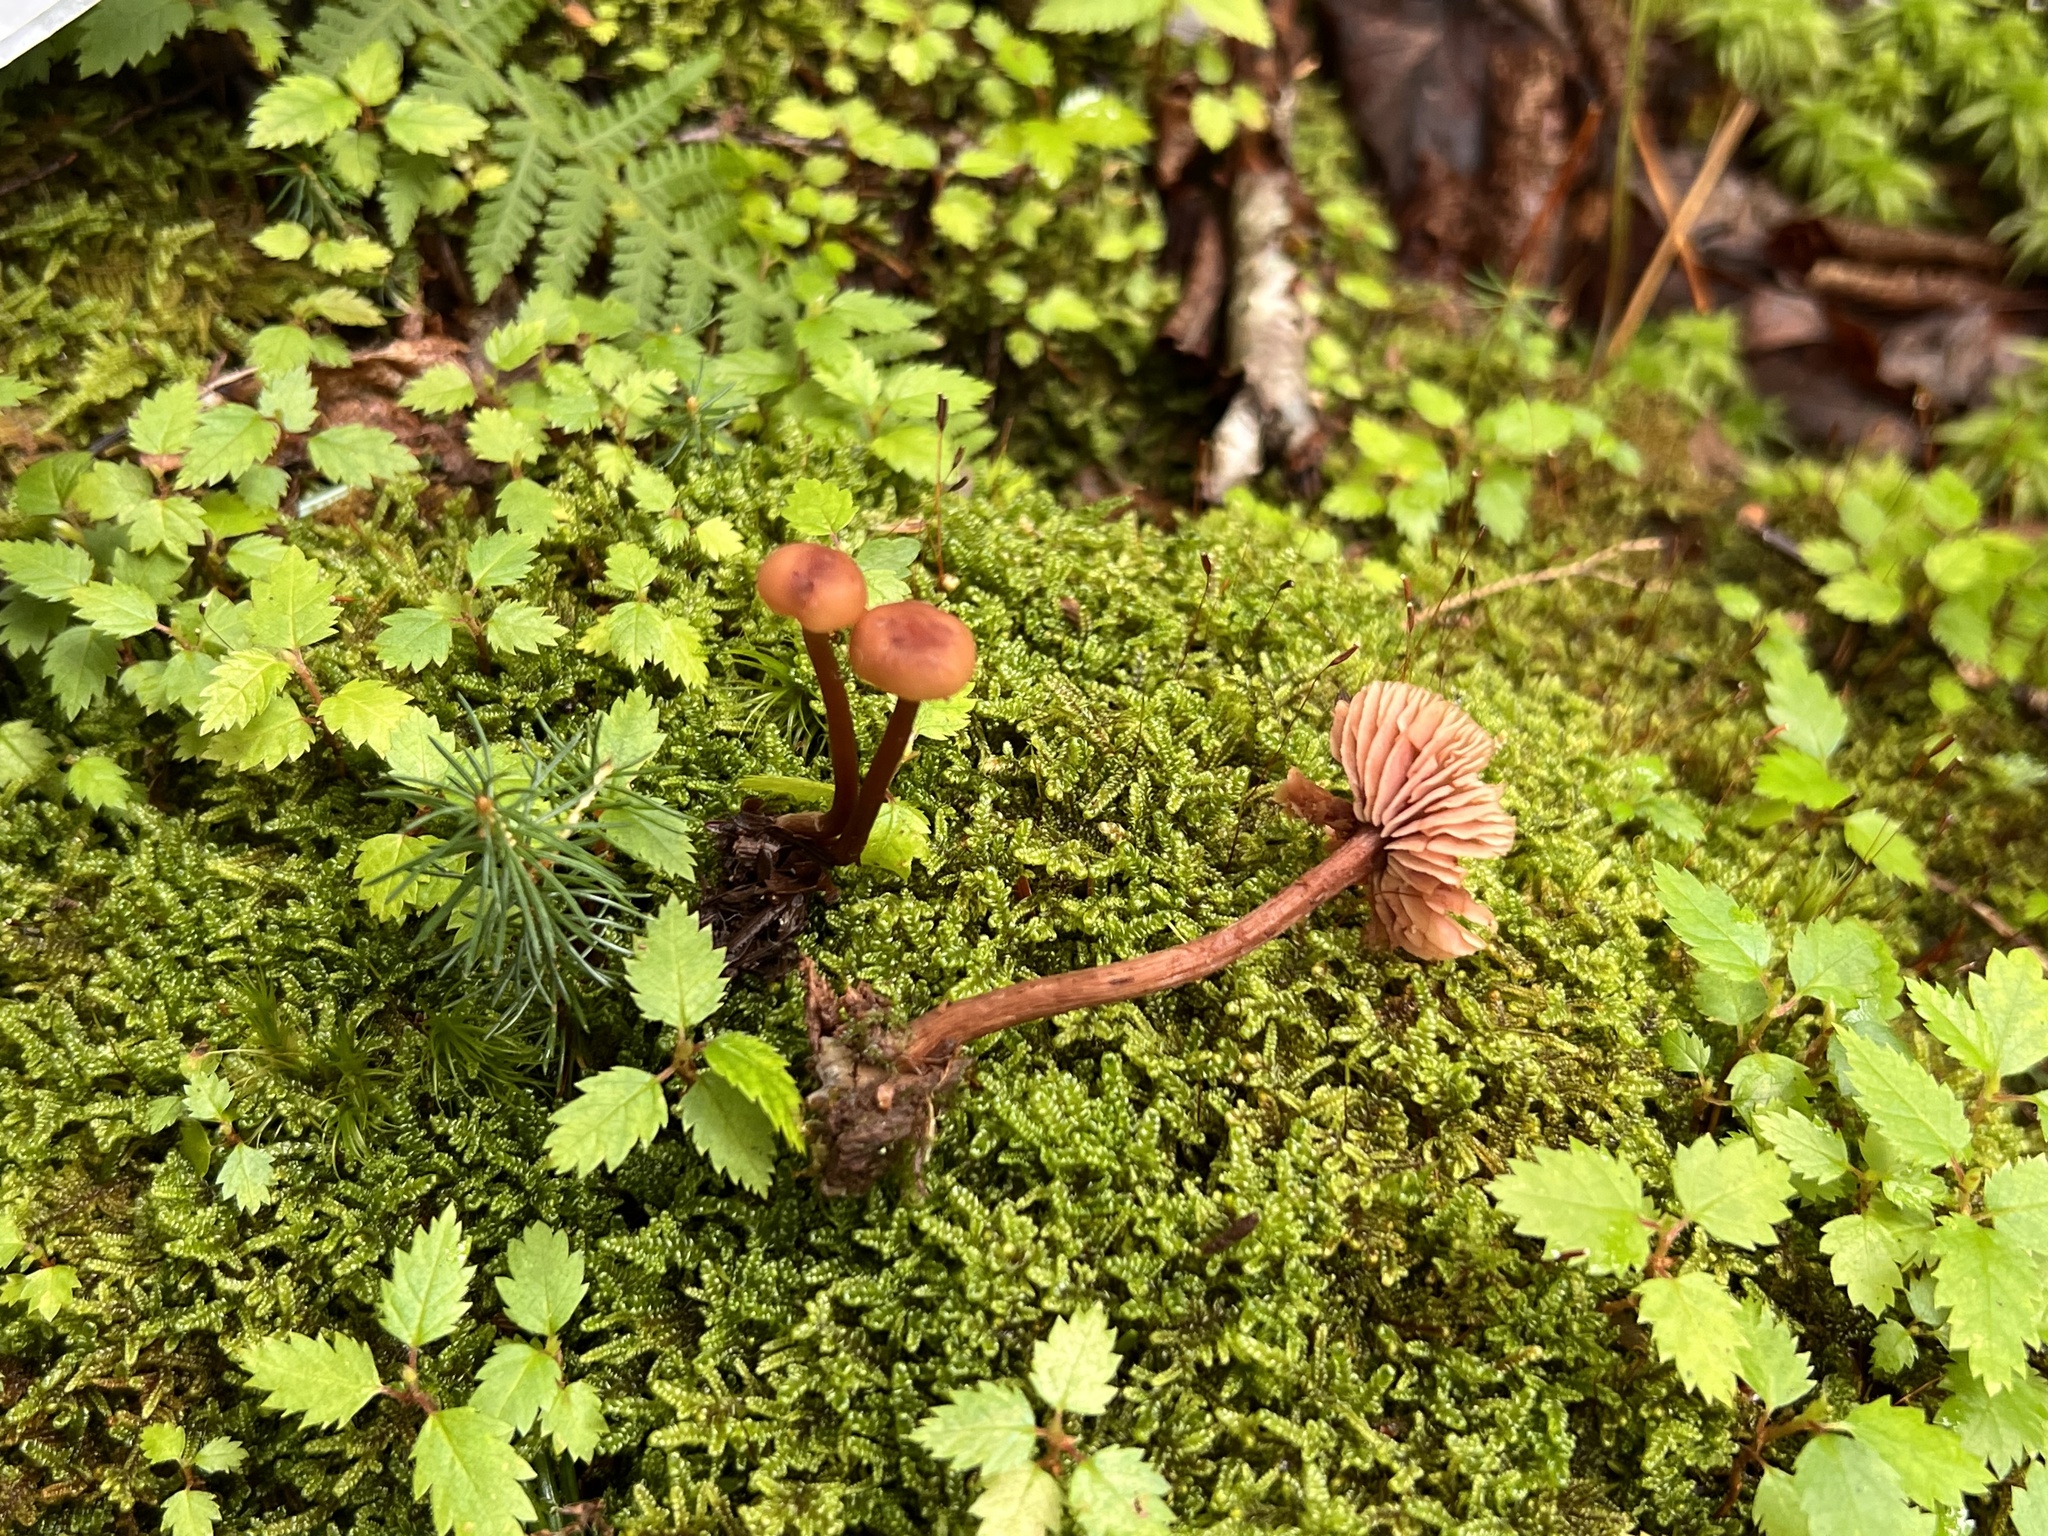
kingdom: Fungi
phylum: Basidiomycota
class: Agaricomycetes
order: Agaricales
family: Hydnangiaceae
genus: Laccaria
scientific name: Laccaria striatula
